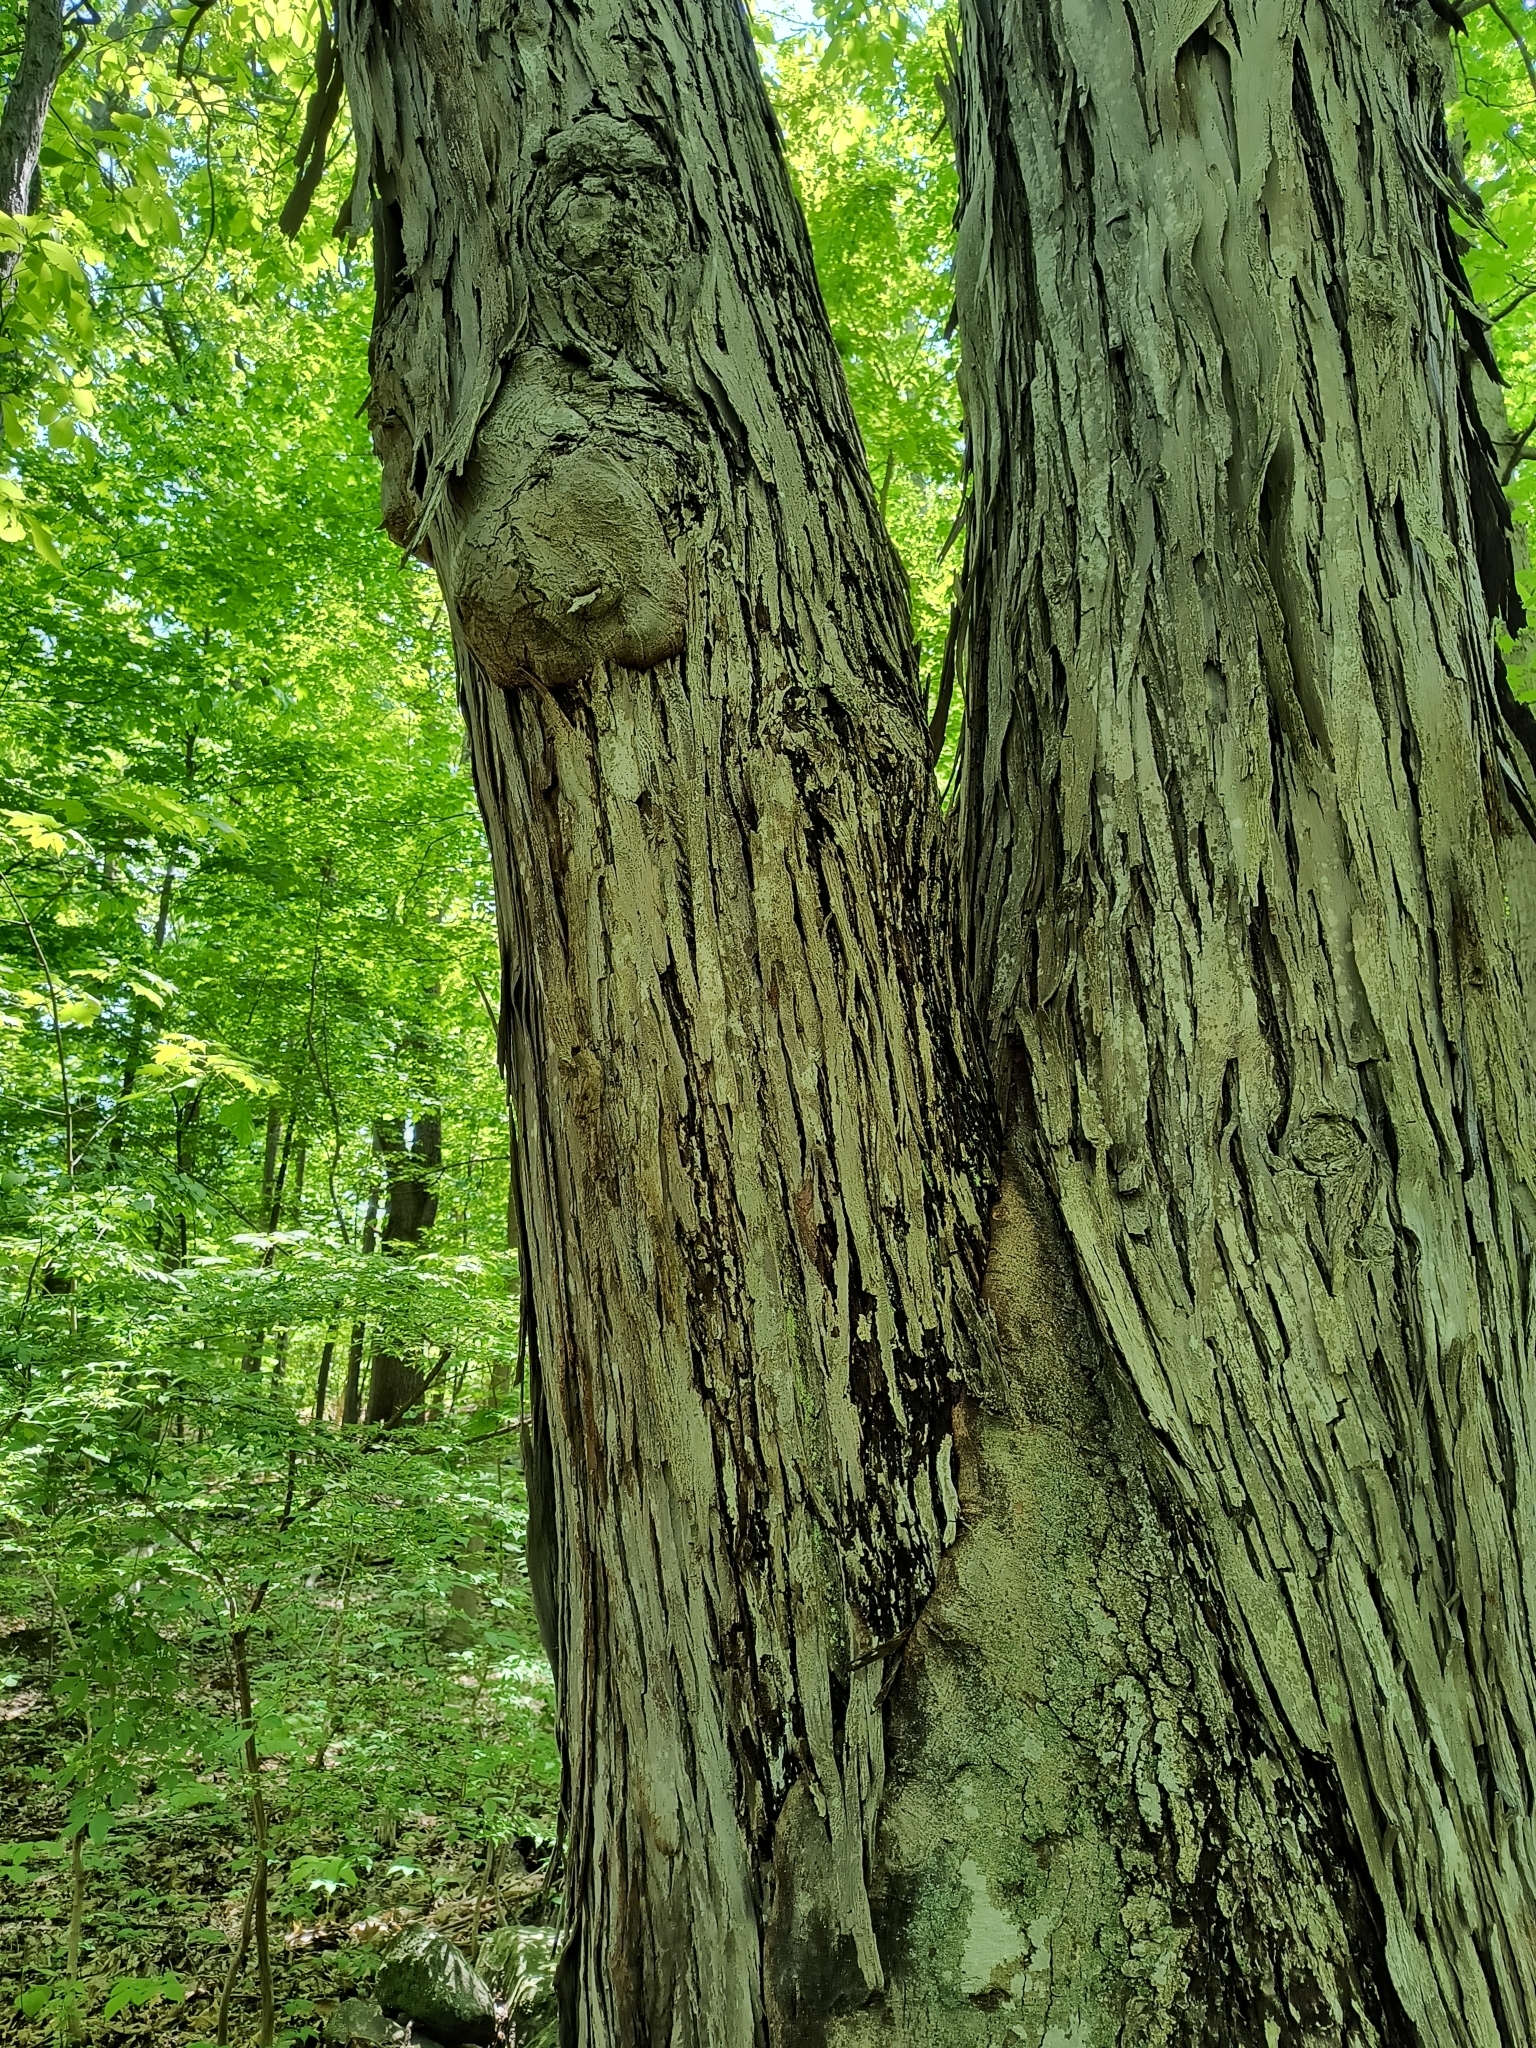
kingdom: Plantae
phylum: Tracheophyta
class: Magnoliopsida
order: Fagales
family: Juglandaceae
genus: Carya
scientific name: Carya ovata
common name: Shagbark hickory
